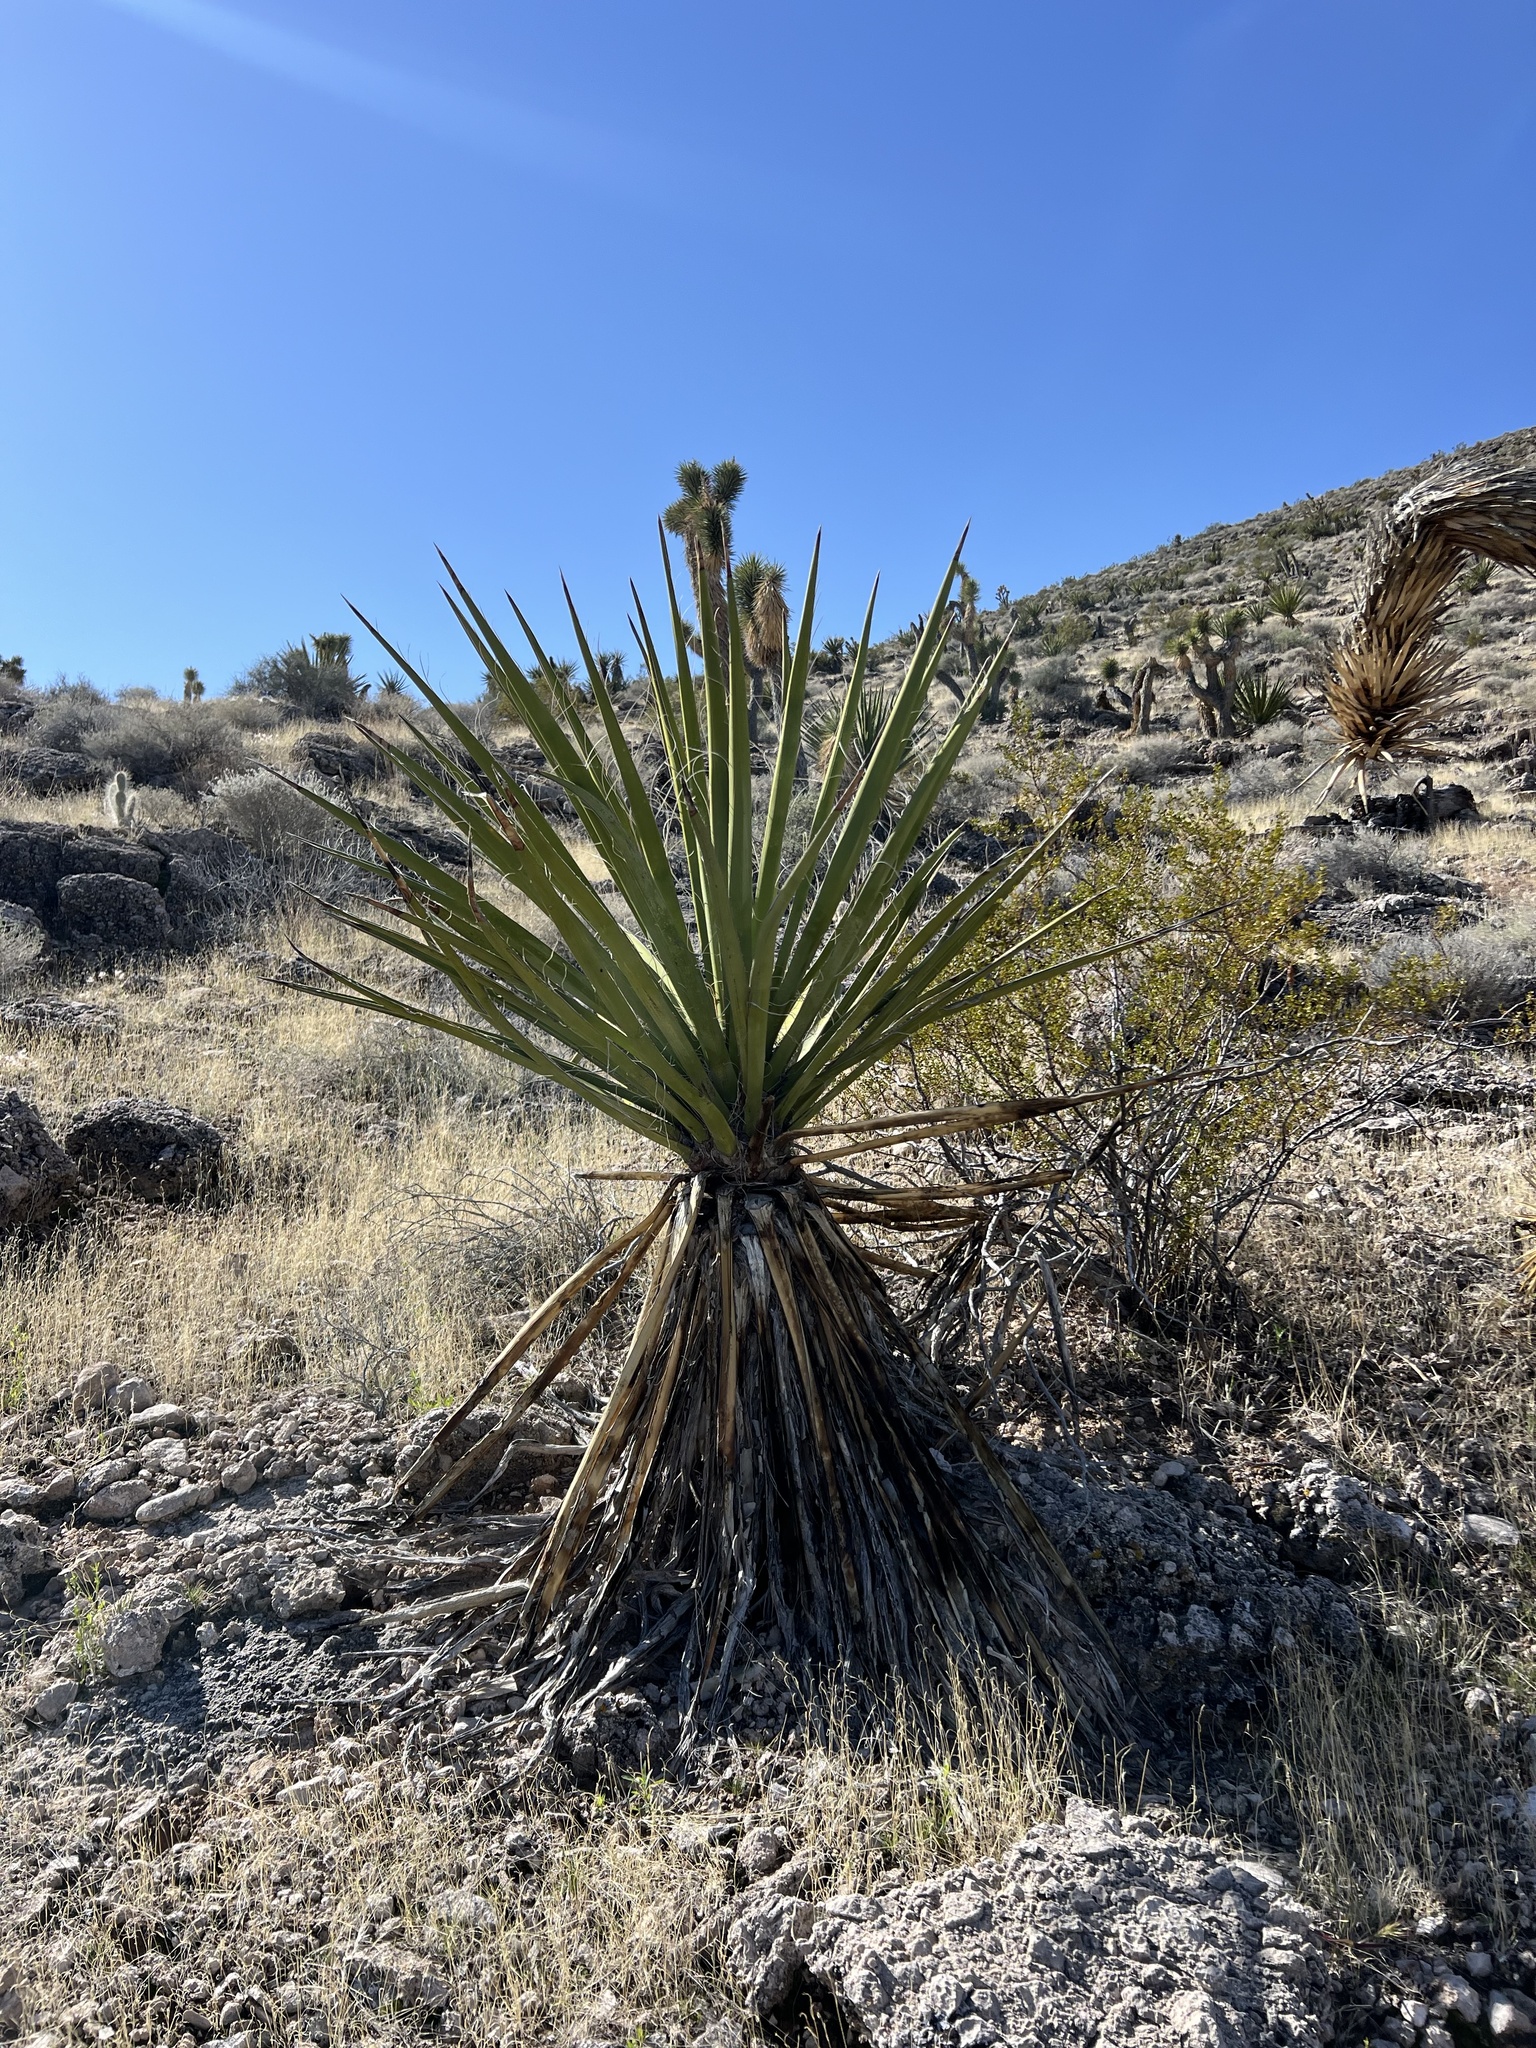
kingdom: Plantae
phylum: Tracheophyta
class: Liliopsida
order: Asparagales
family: Asparagaceae
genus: Yucca
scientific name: Yucca schidigera
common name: Mojave yucca
